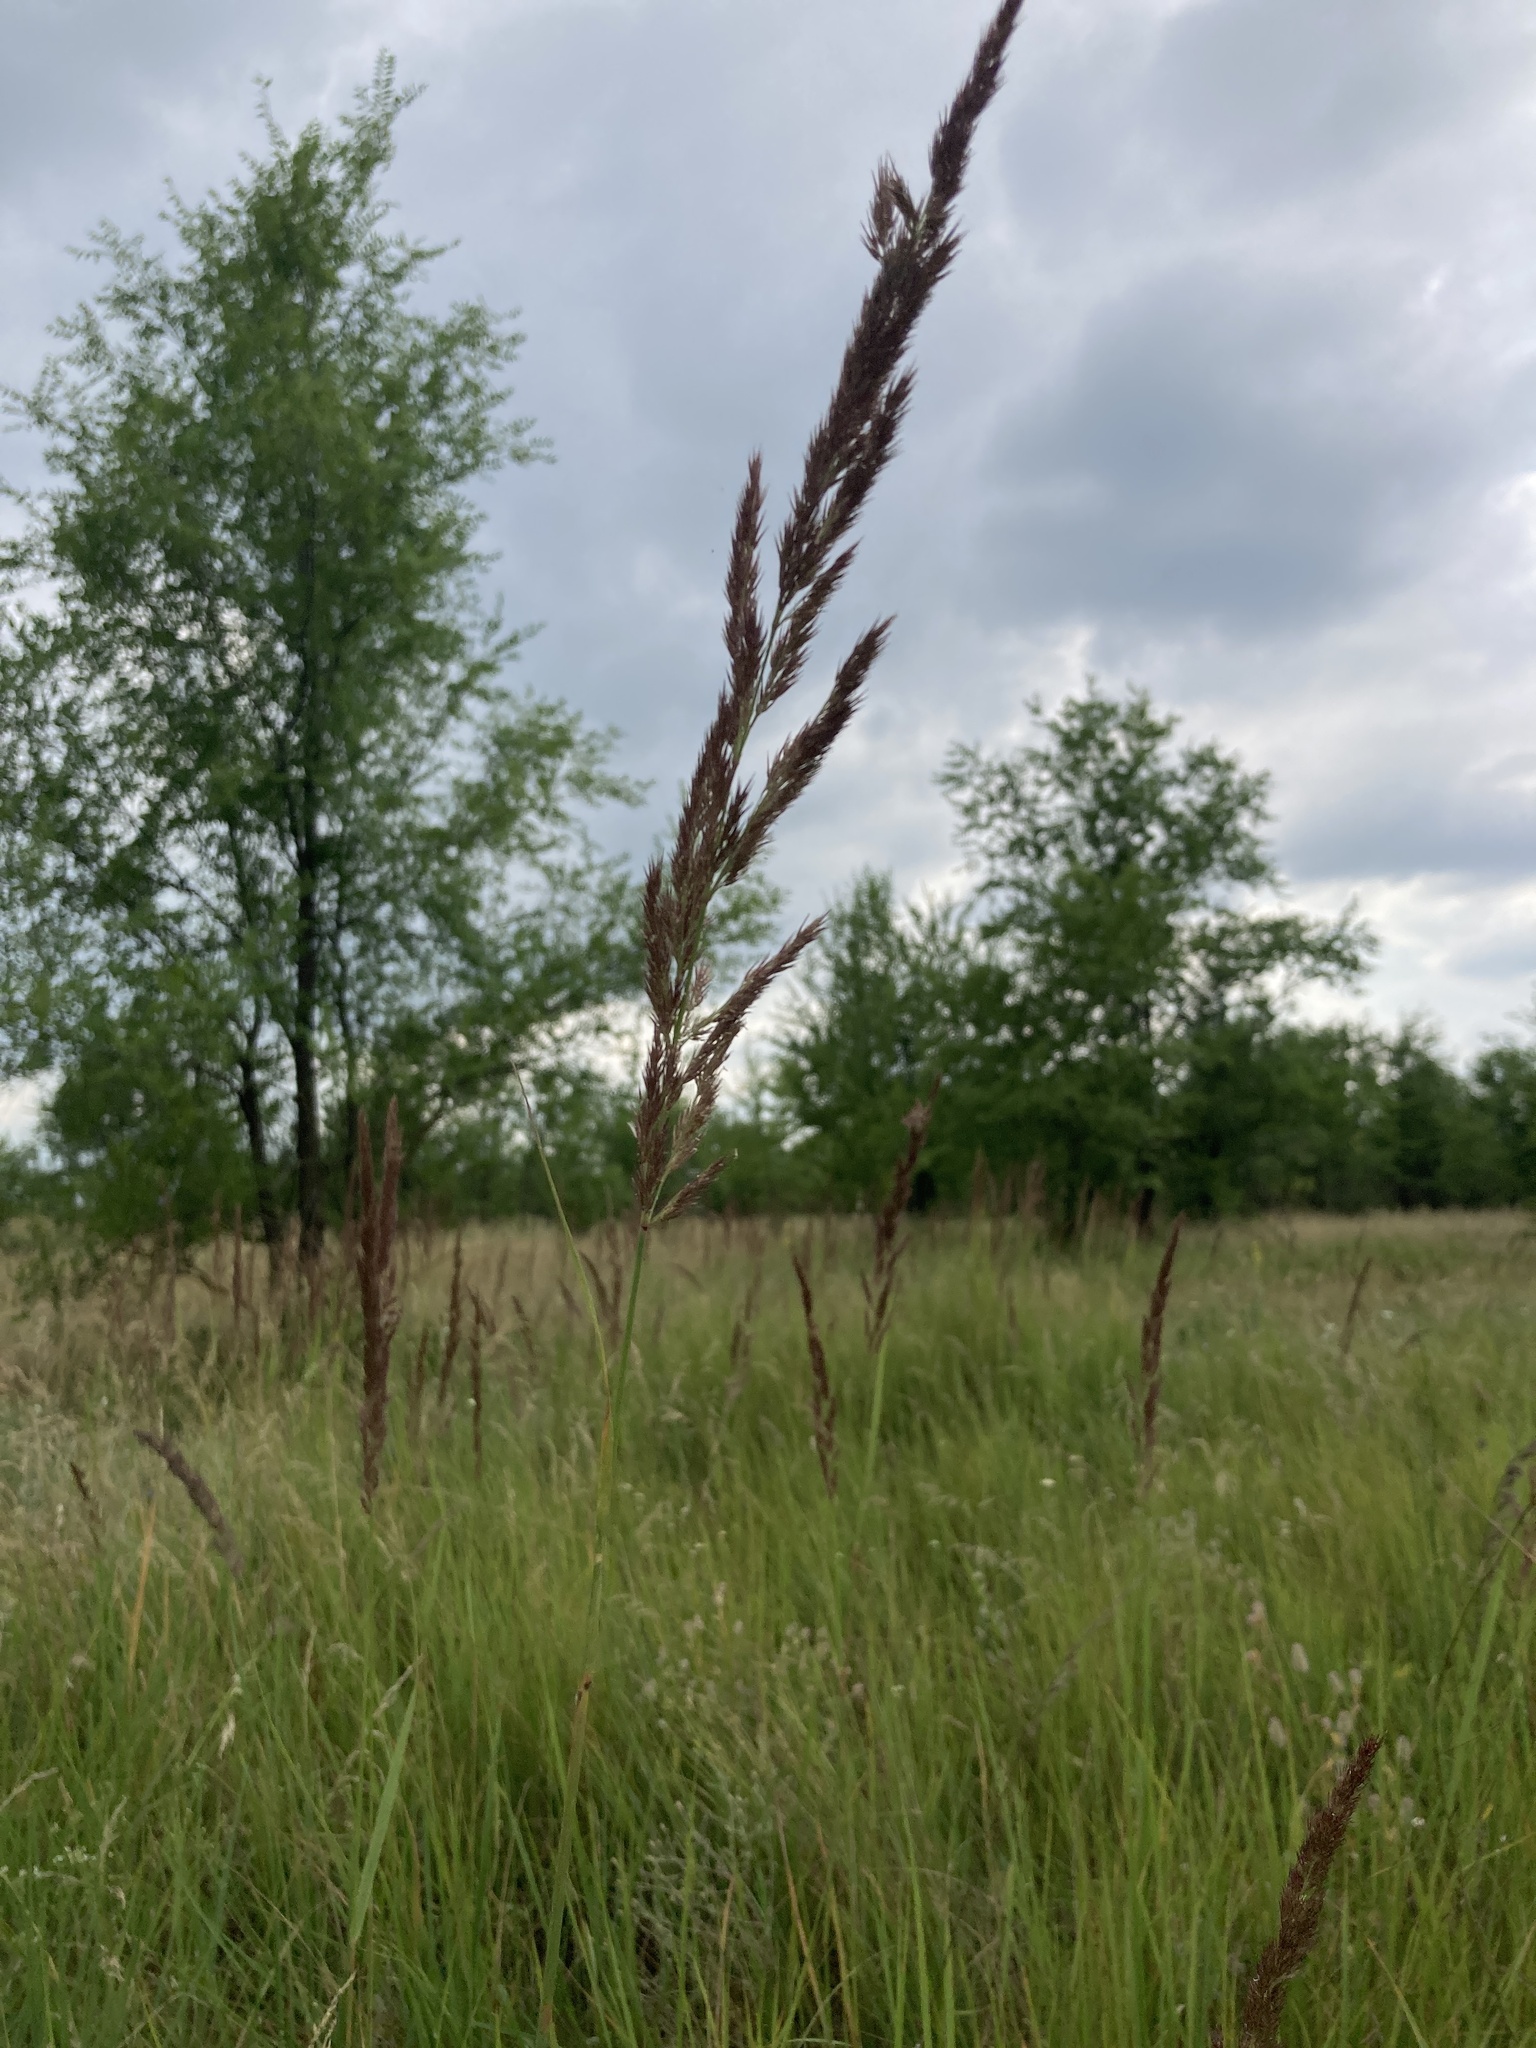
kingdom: Plantae
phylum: Tracheophyta
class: Liliopsida
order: Poales
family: Poaceae
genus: Calamagrostis
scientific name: Calamagrostis epigejos
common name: Wood small-reed
